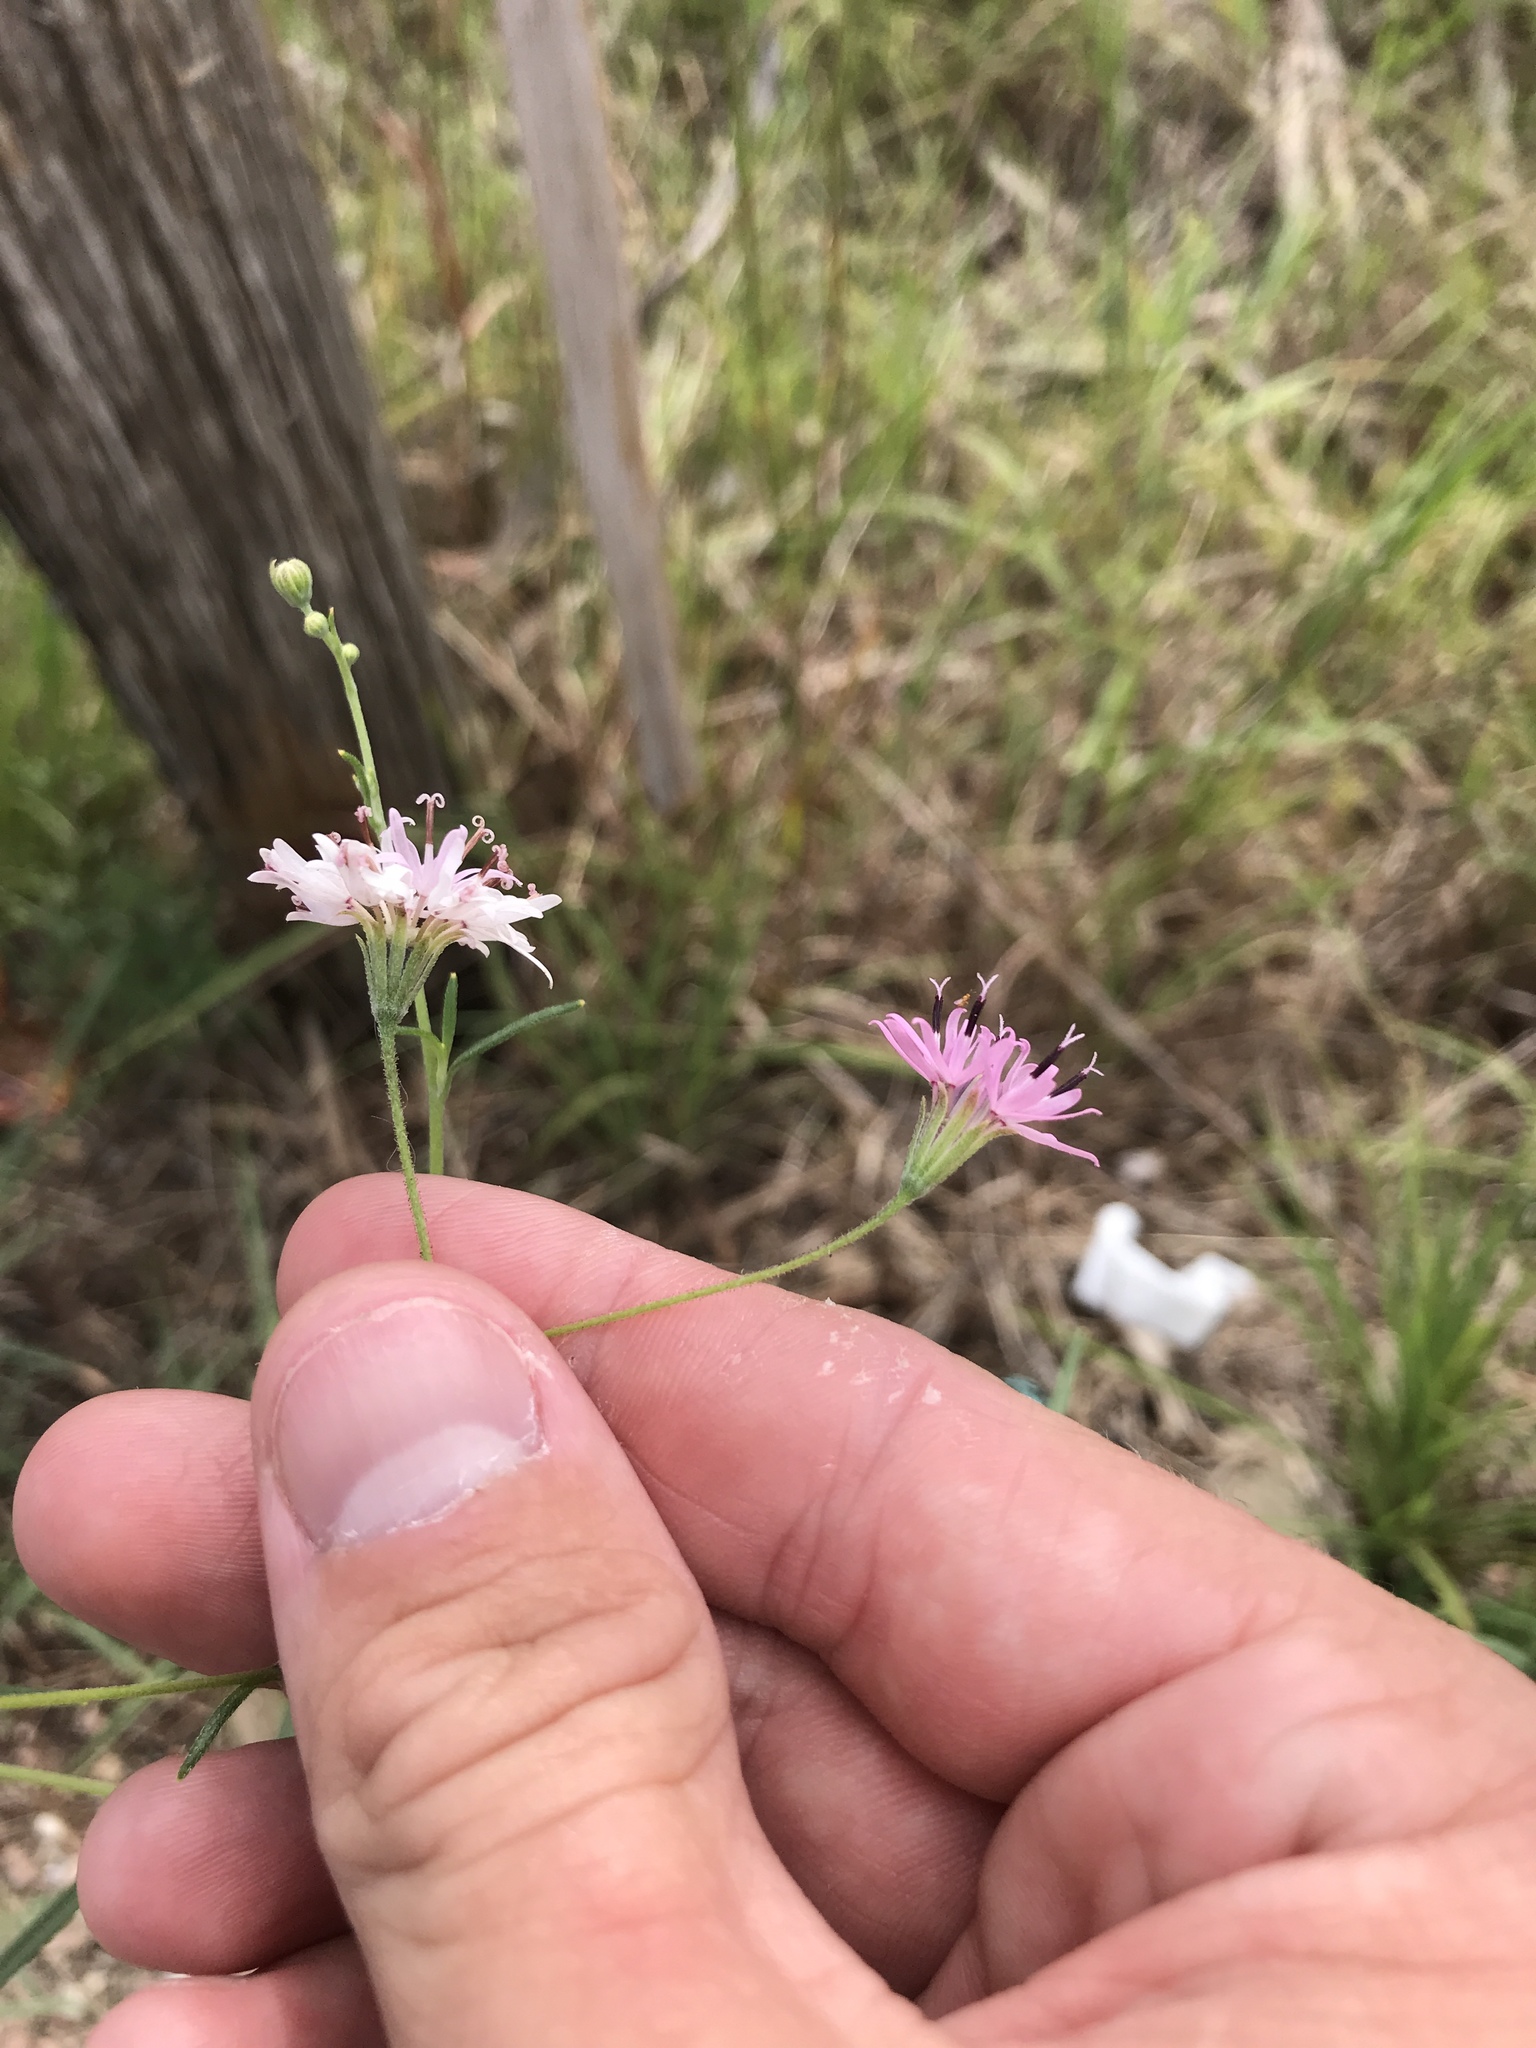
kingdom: Plantae
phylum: Tracheophyta
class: Magnoliopsida
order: Asterales
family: Asteraceae
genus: Palafoxia
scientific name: Palafoxia callosa
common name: Small palafox
